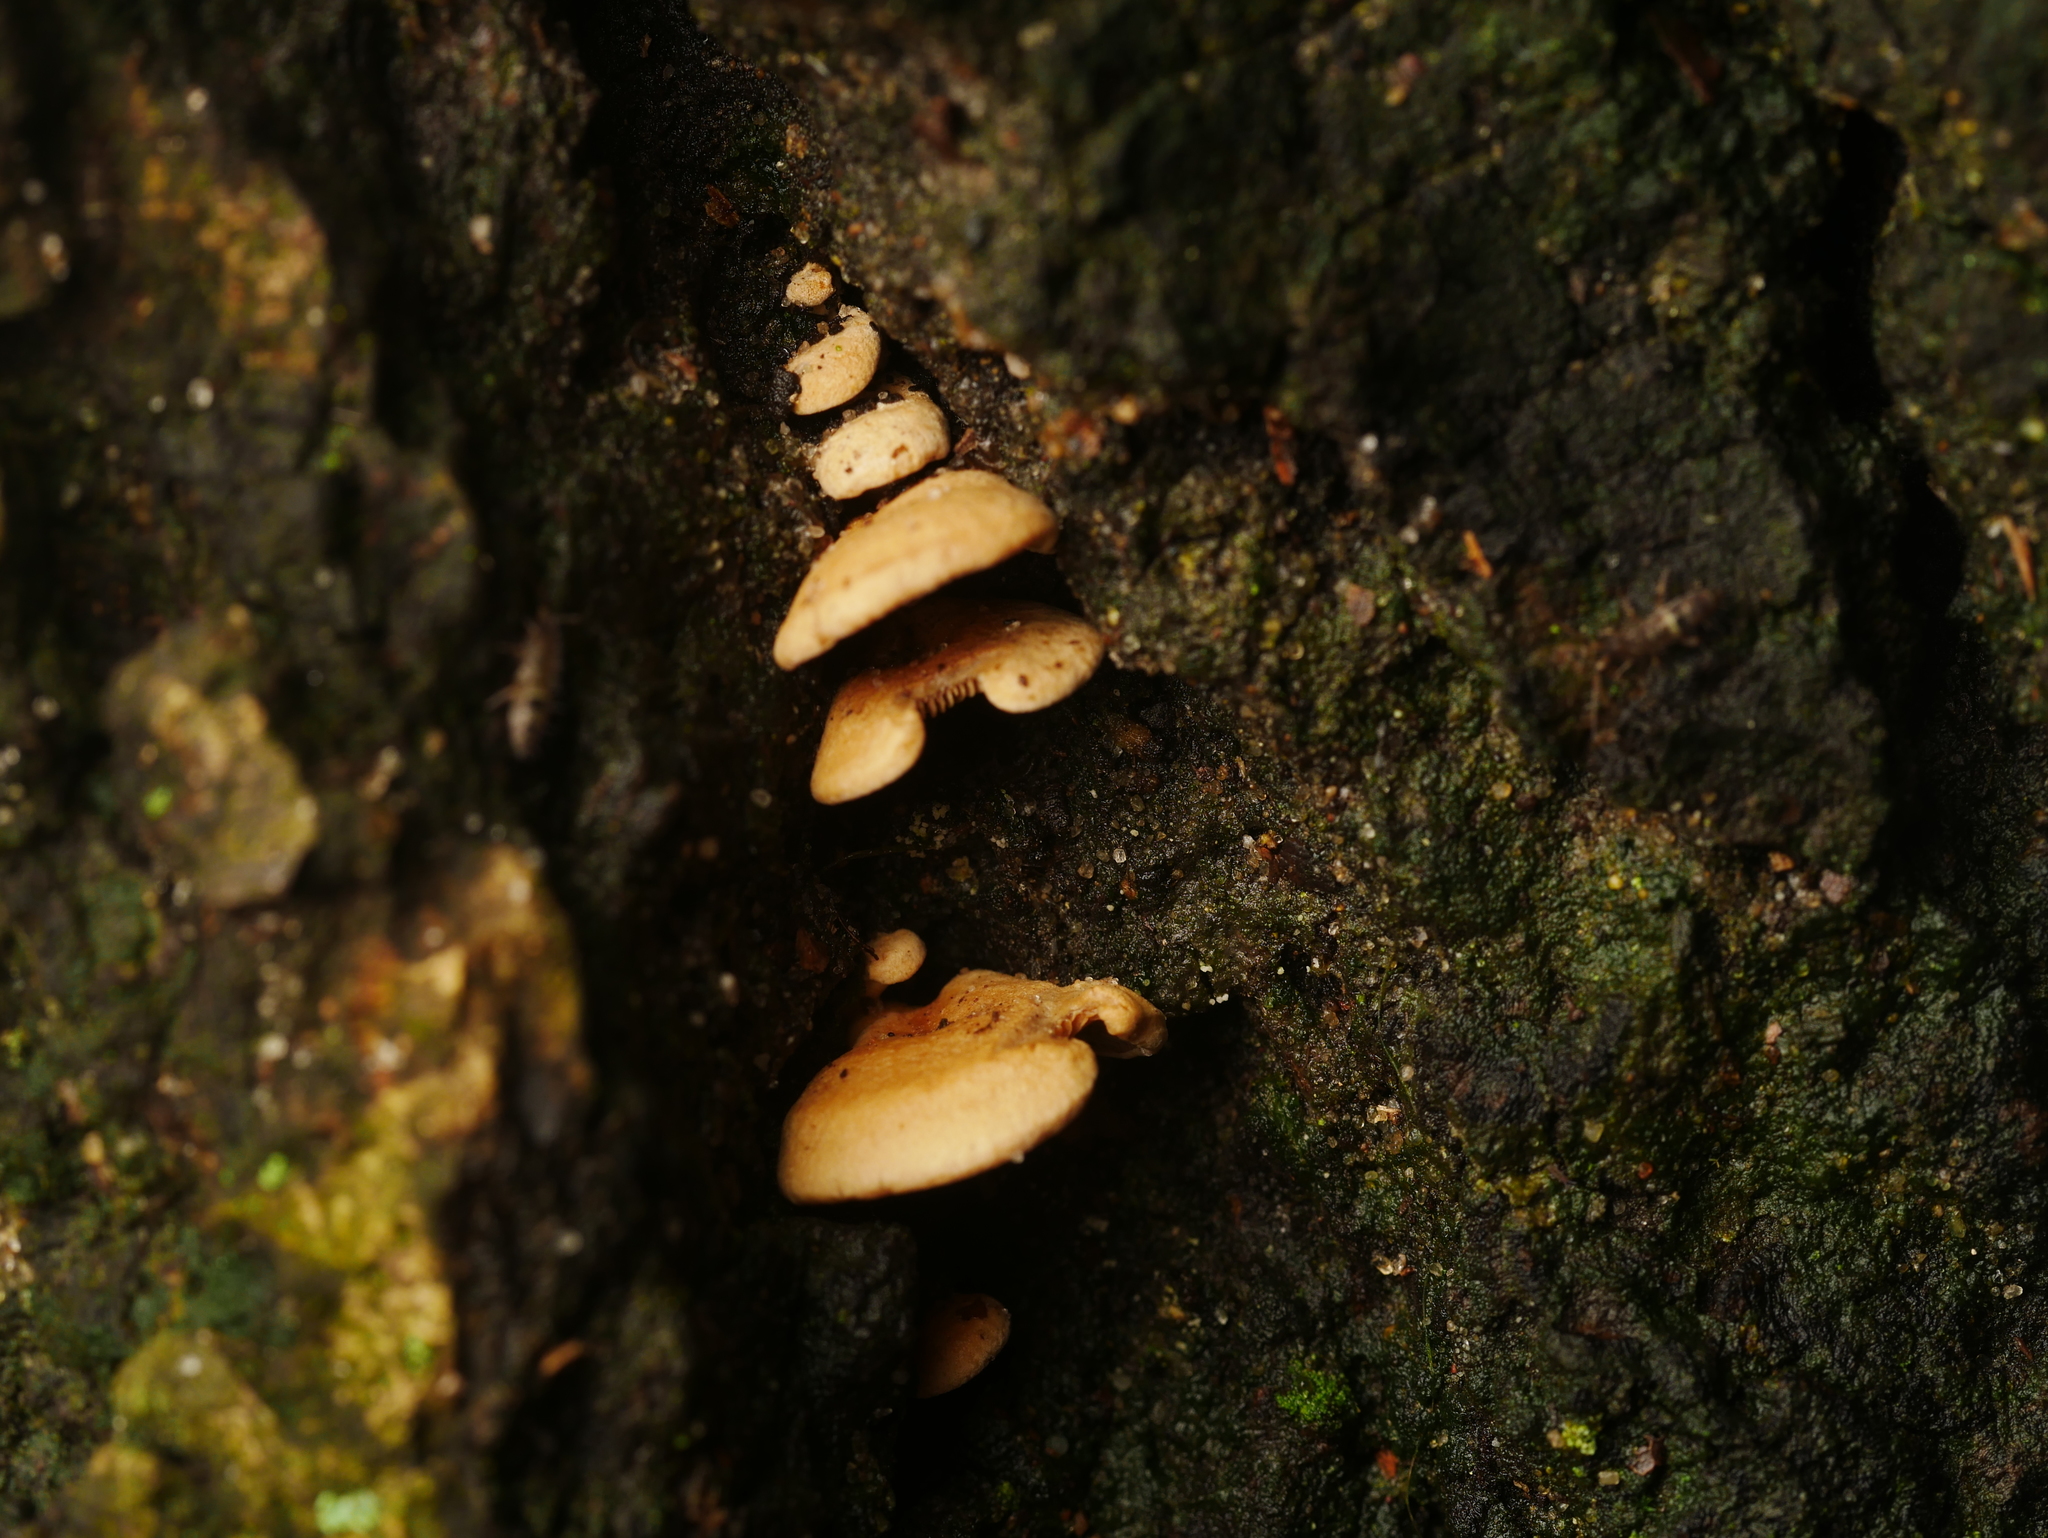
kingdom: Fungi
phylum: Basidiomycota
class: Agaricomycetes
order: Agaricales
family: Mycenaceae
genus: Panellus
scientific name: Panellus stipticus
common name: Bitter oysterling
